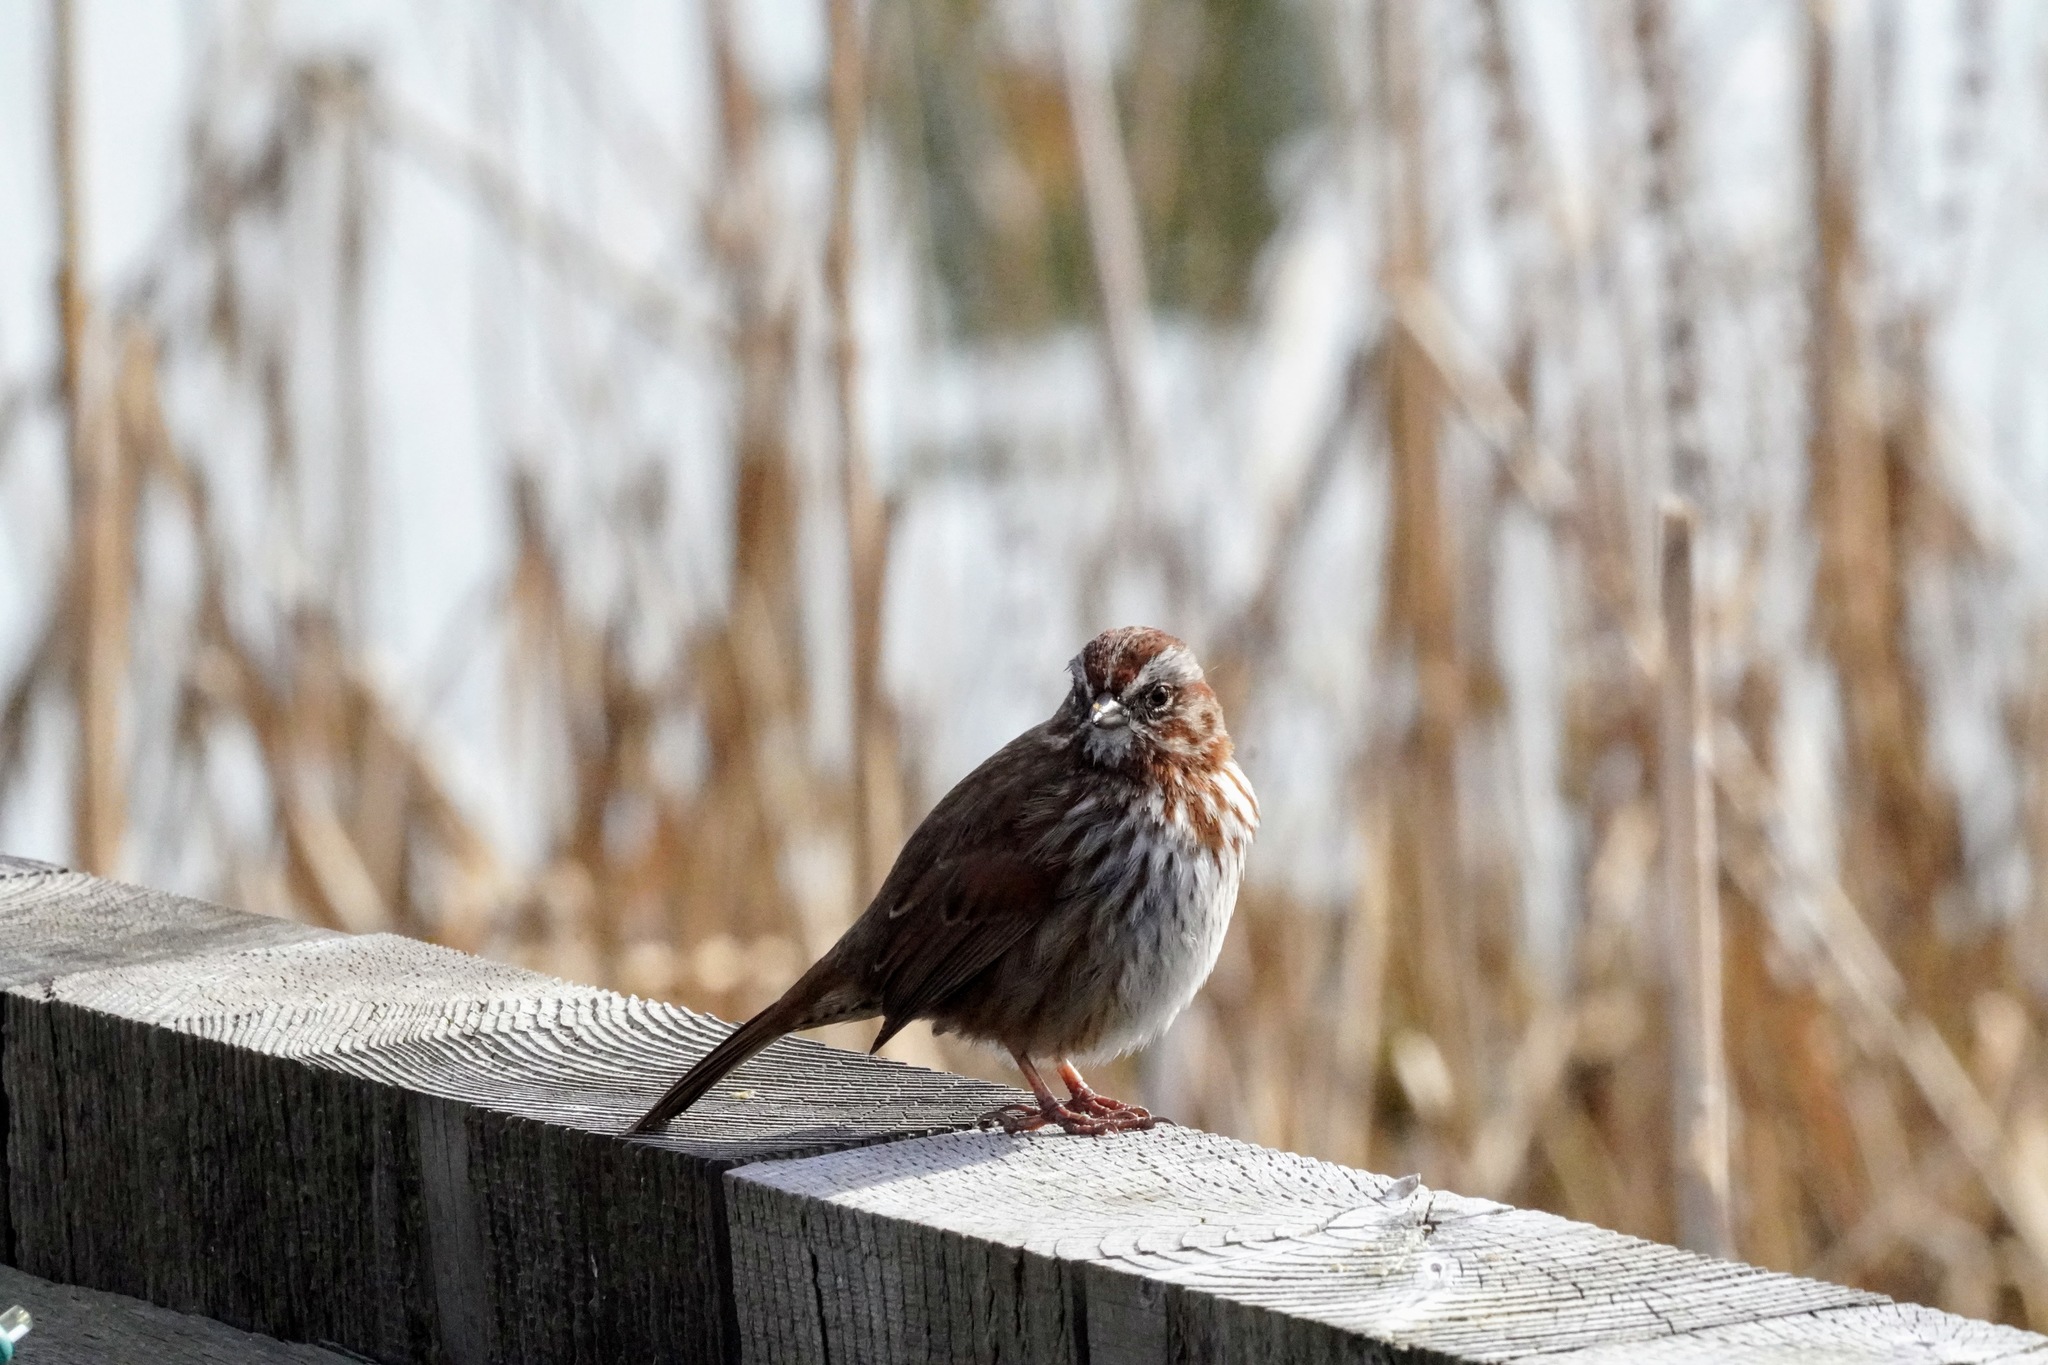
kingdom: Animalia
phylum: Chordata
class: Aves
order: Passeriformes
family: Passerellidae
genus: Melospiza
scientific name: Melospiza melodia
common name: Song sparrow
